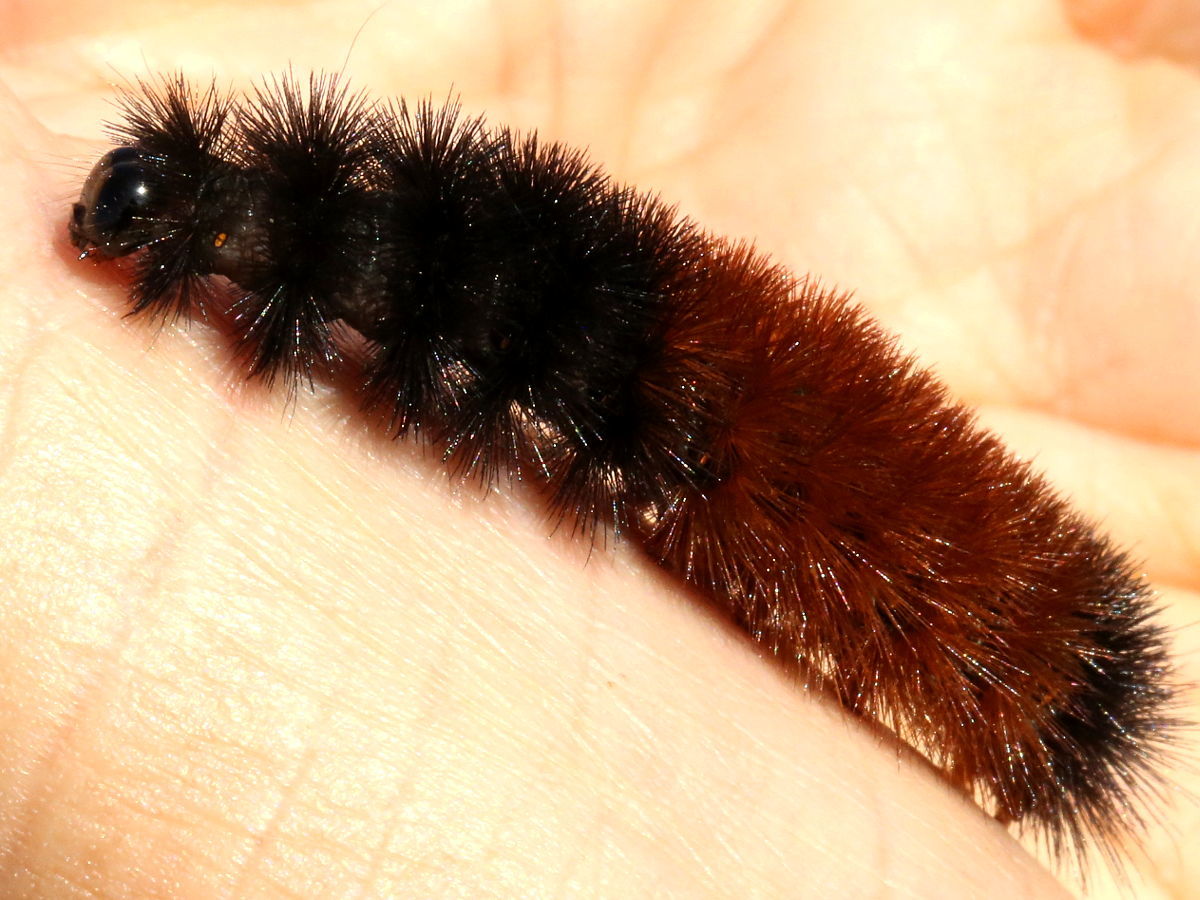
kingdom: Animalia
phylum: Arthropoda
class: Insecta
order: Lepidoptera
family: Erebidae
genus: Pyrrharctia
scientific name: Pyrrharctia isabella
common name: Isabella tiger moth
